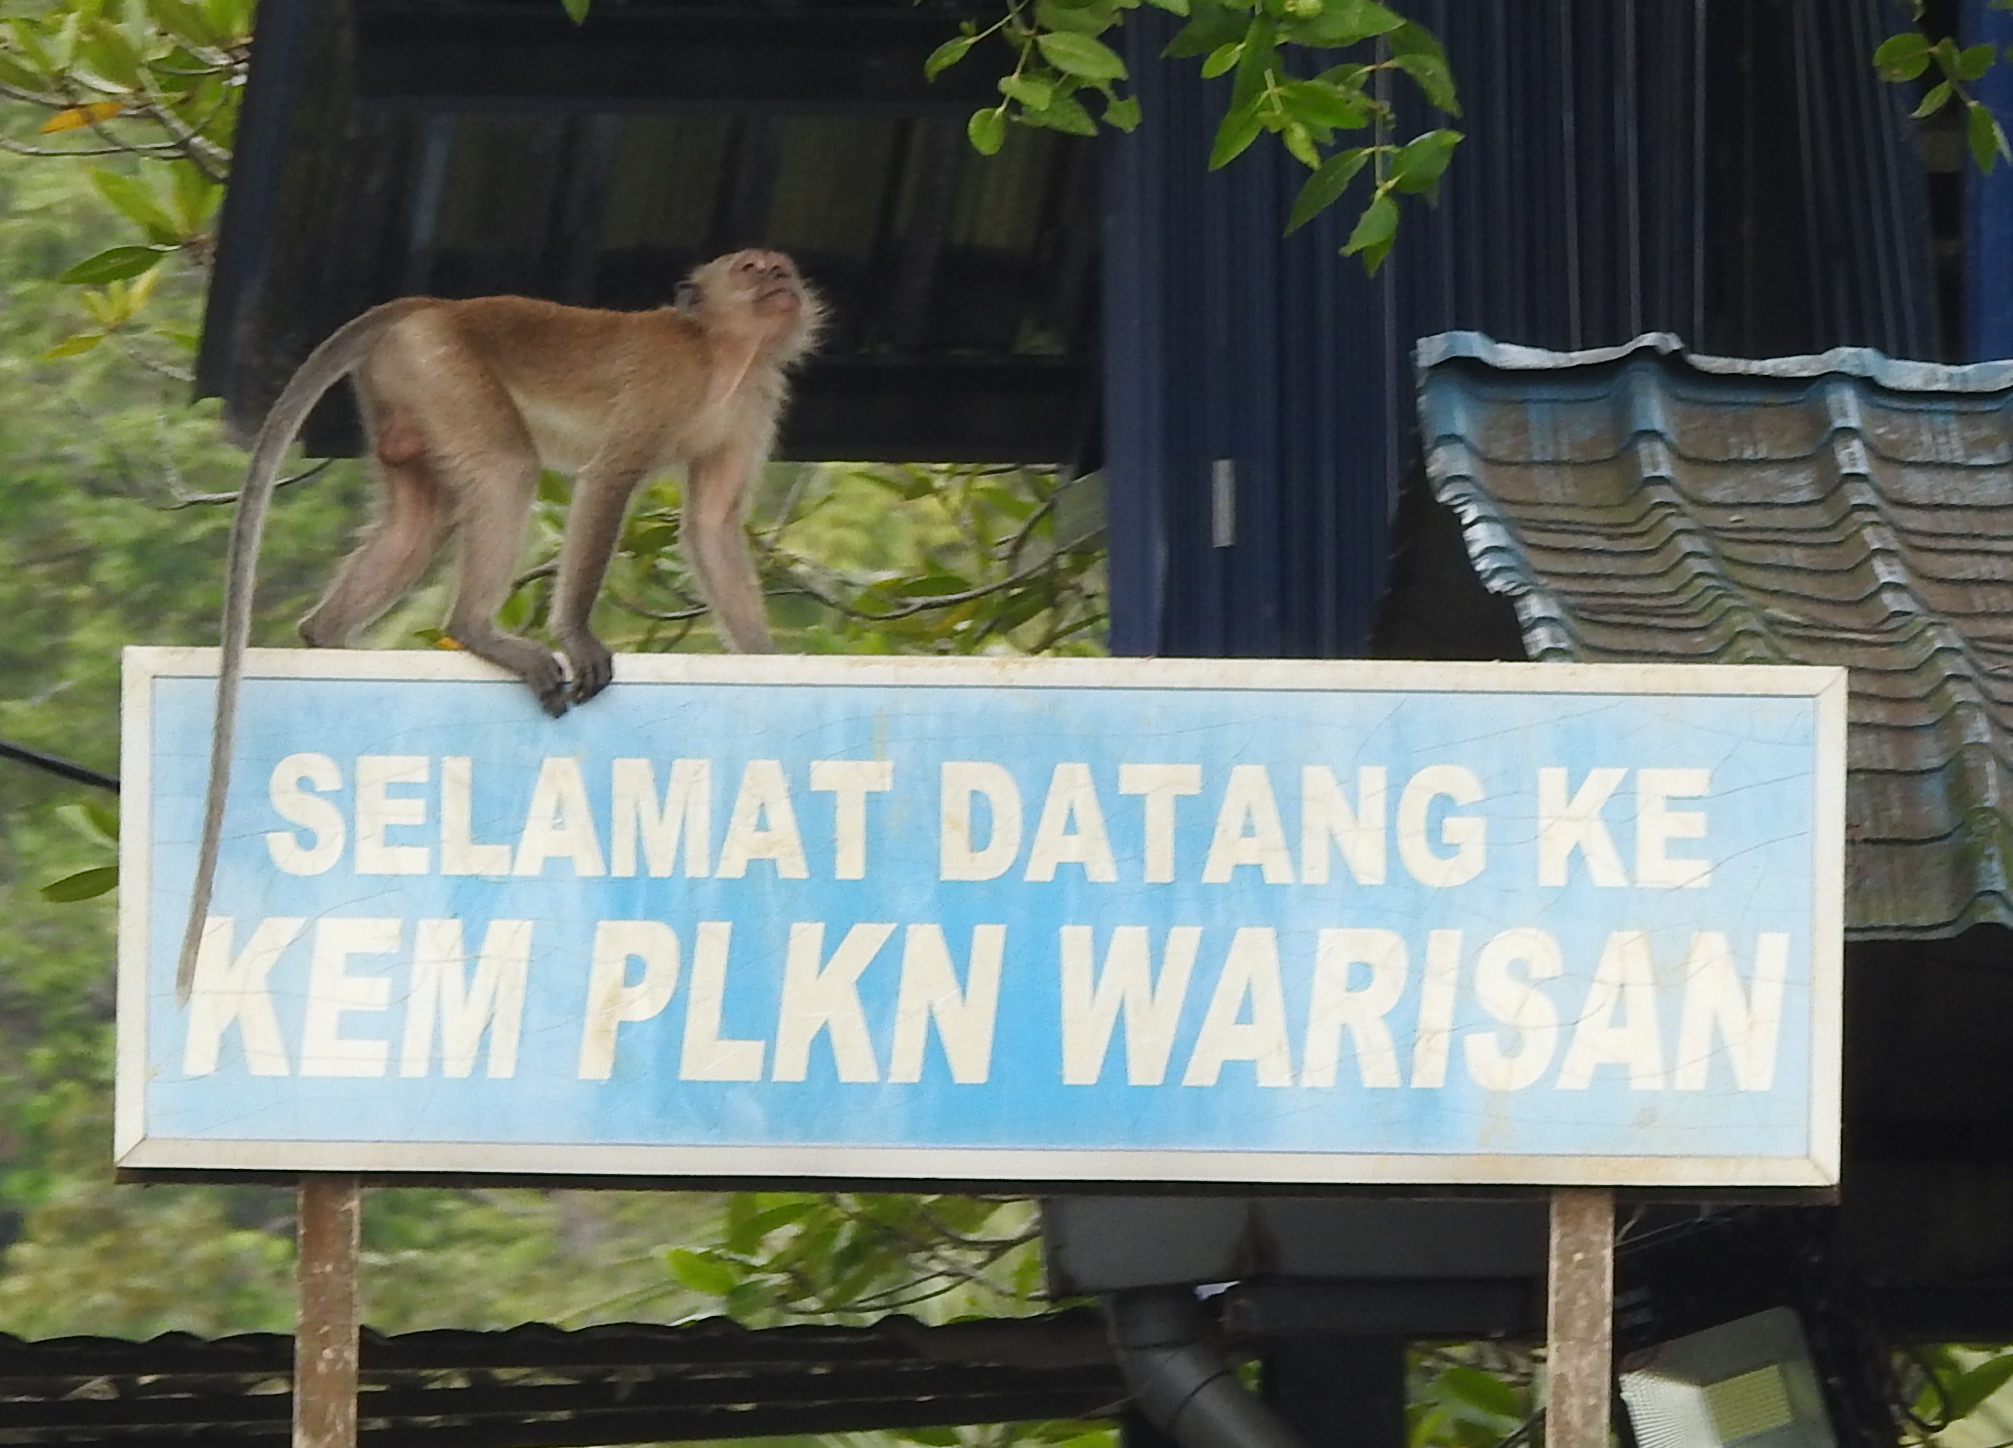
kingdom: Animalia
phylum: Chordata
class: Mammalia
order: Primates
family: Cercopithecidae
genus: Macaca
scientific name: Macaca fascicularis
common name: Crab-eating macaque
